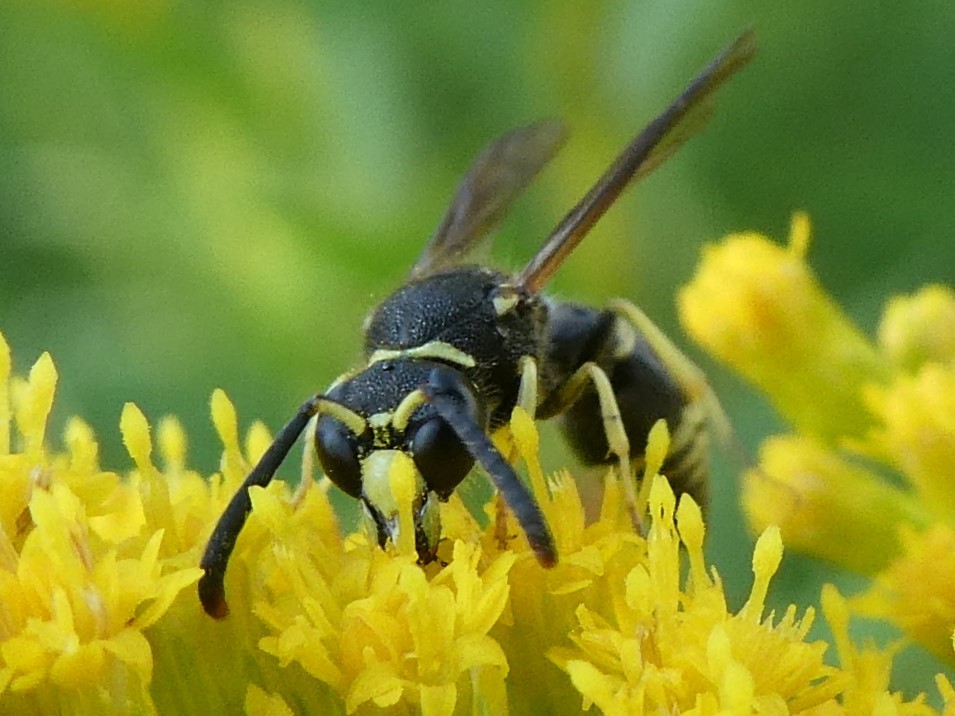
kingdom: Animalia
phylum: Arthropoda
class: Insecta
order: Hymenoptera
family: Vespidae
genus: Ancistrocerus
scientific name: Ancistrocerus
